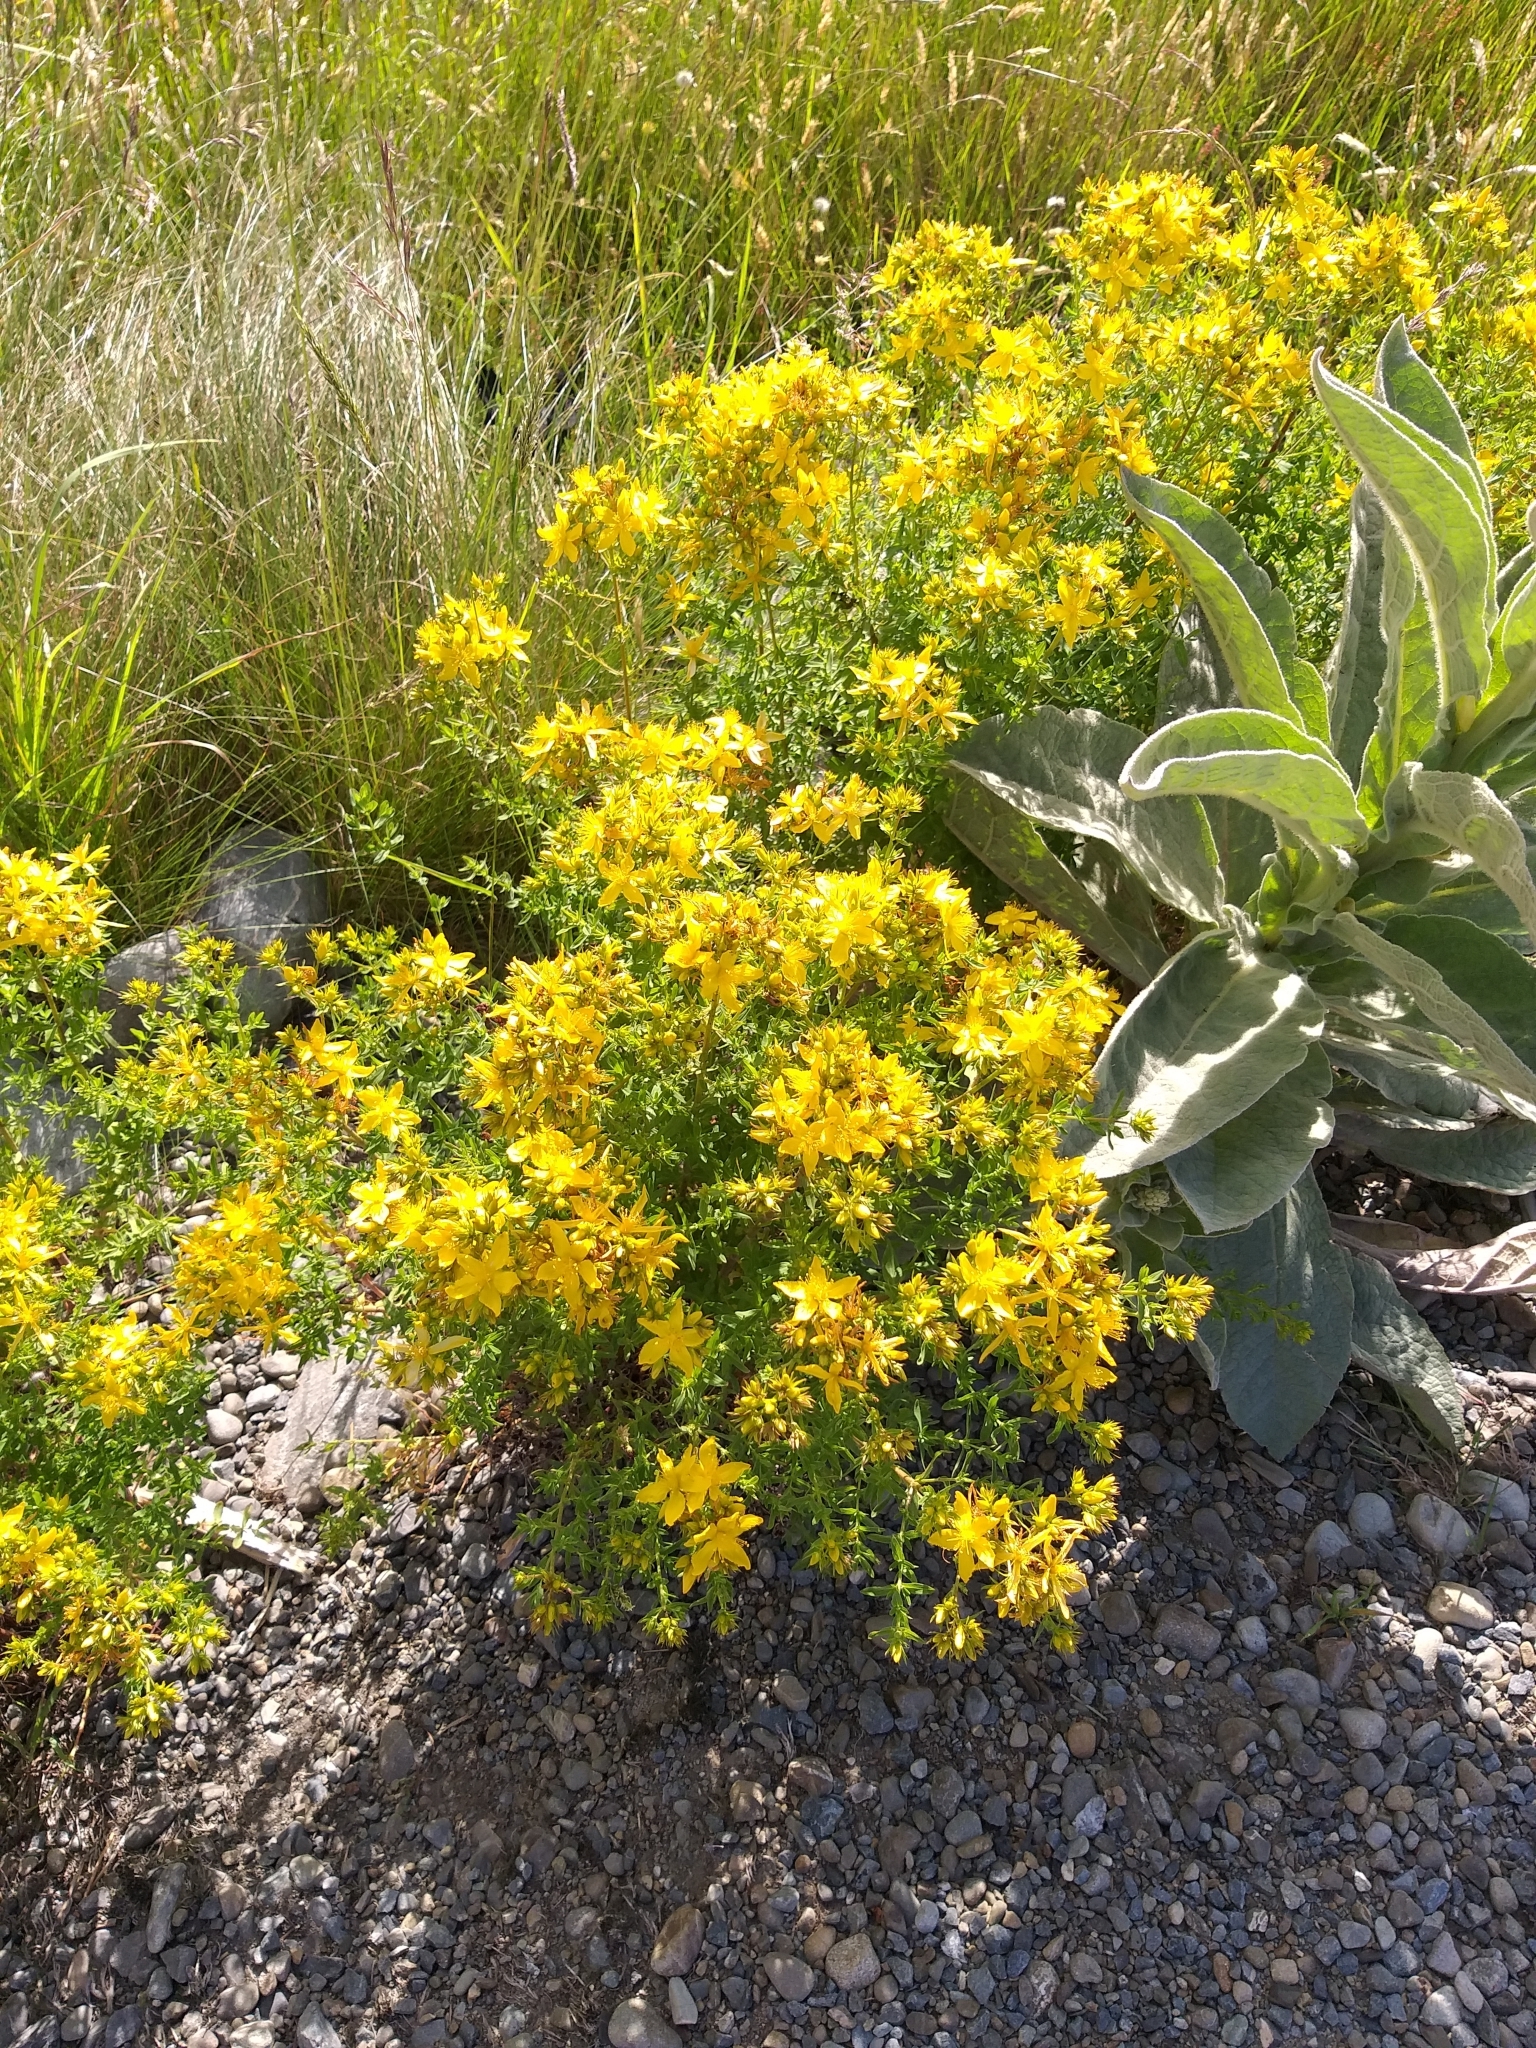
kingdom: Plantae
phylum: Tracheophyta
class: Magnoliopsida
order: Malpighiales
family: Hypericaceae
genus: Hypericum
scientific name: Hypericum perforatum
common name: Common st. johnswort
